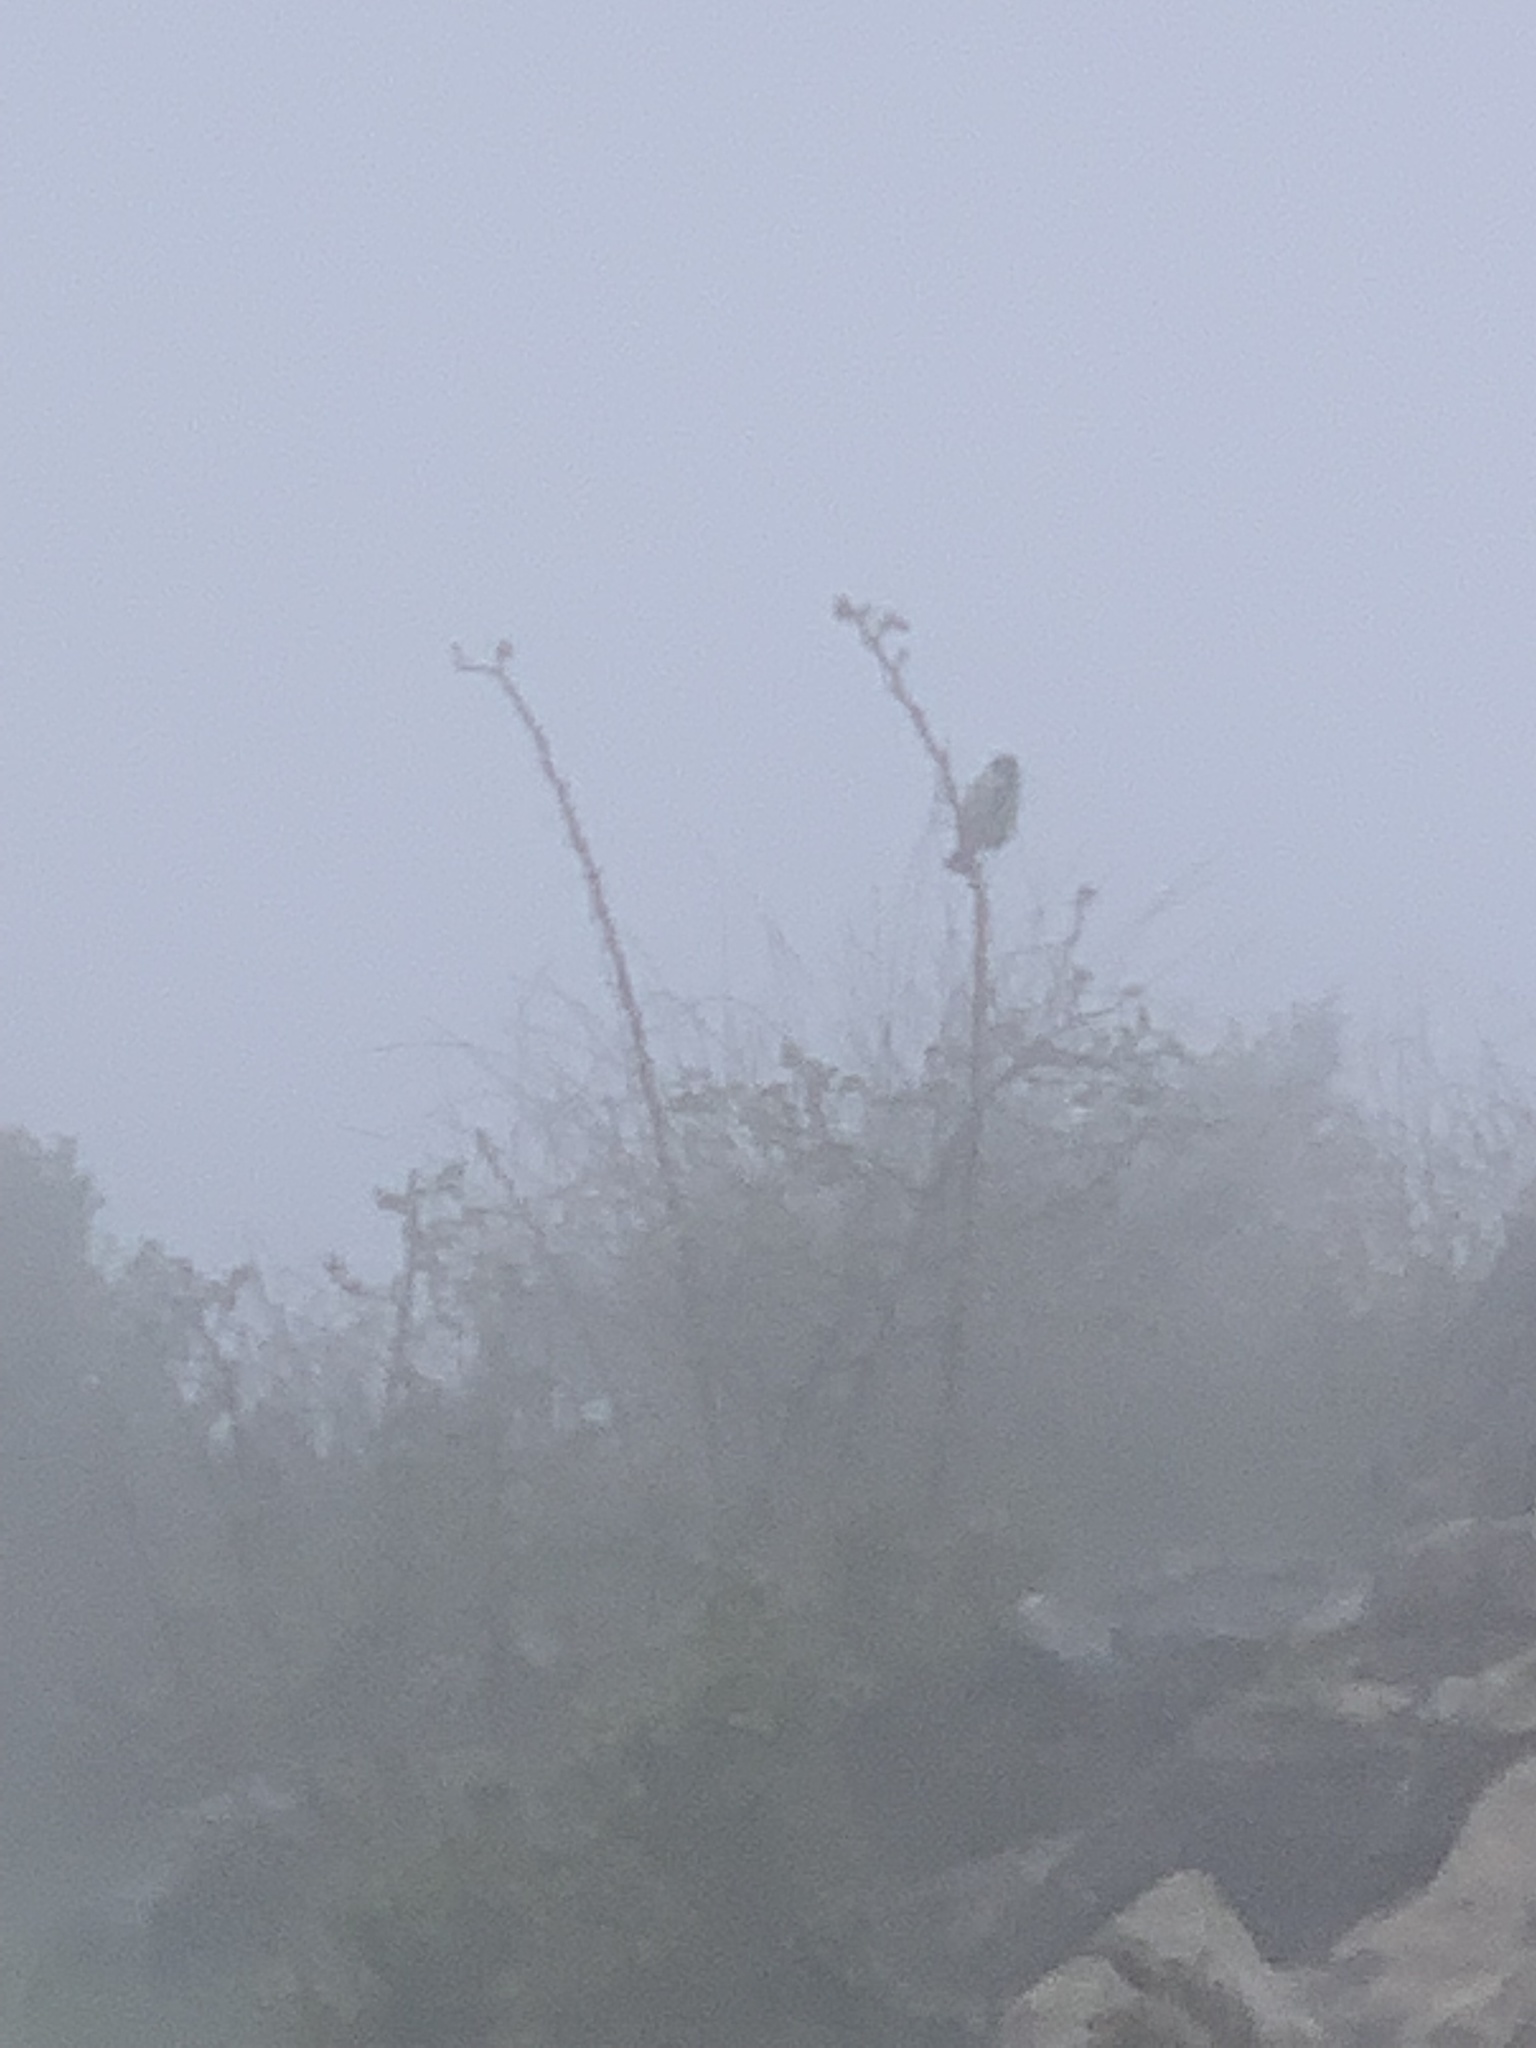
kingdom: Animalia
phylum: Chordata
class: Aves
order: Passeriformes
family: Paridae
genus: Parus
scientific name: Parus major
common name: Great tit
